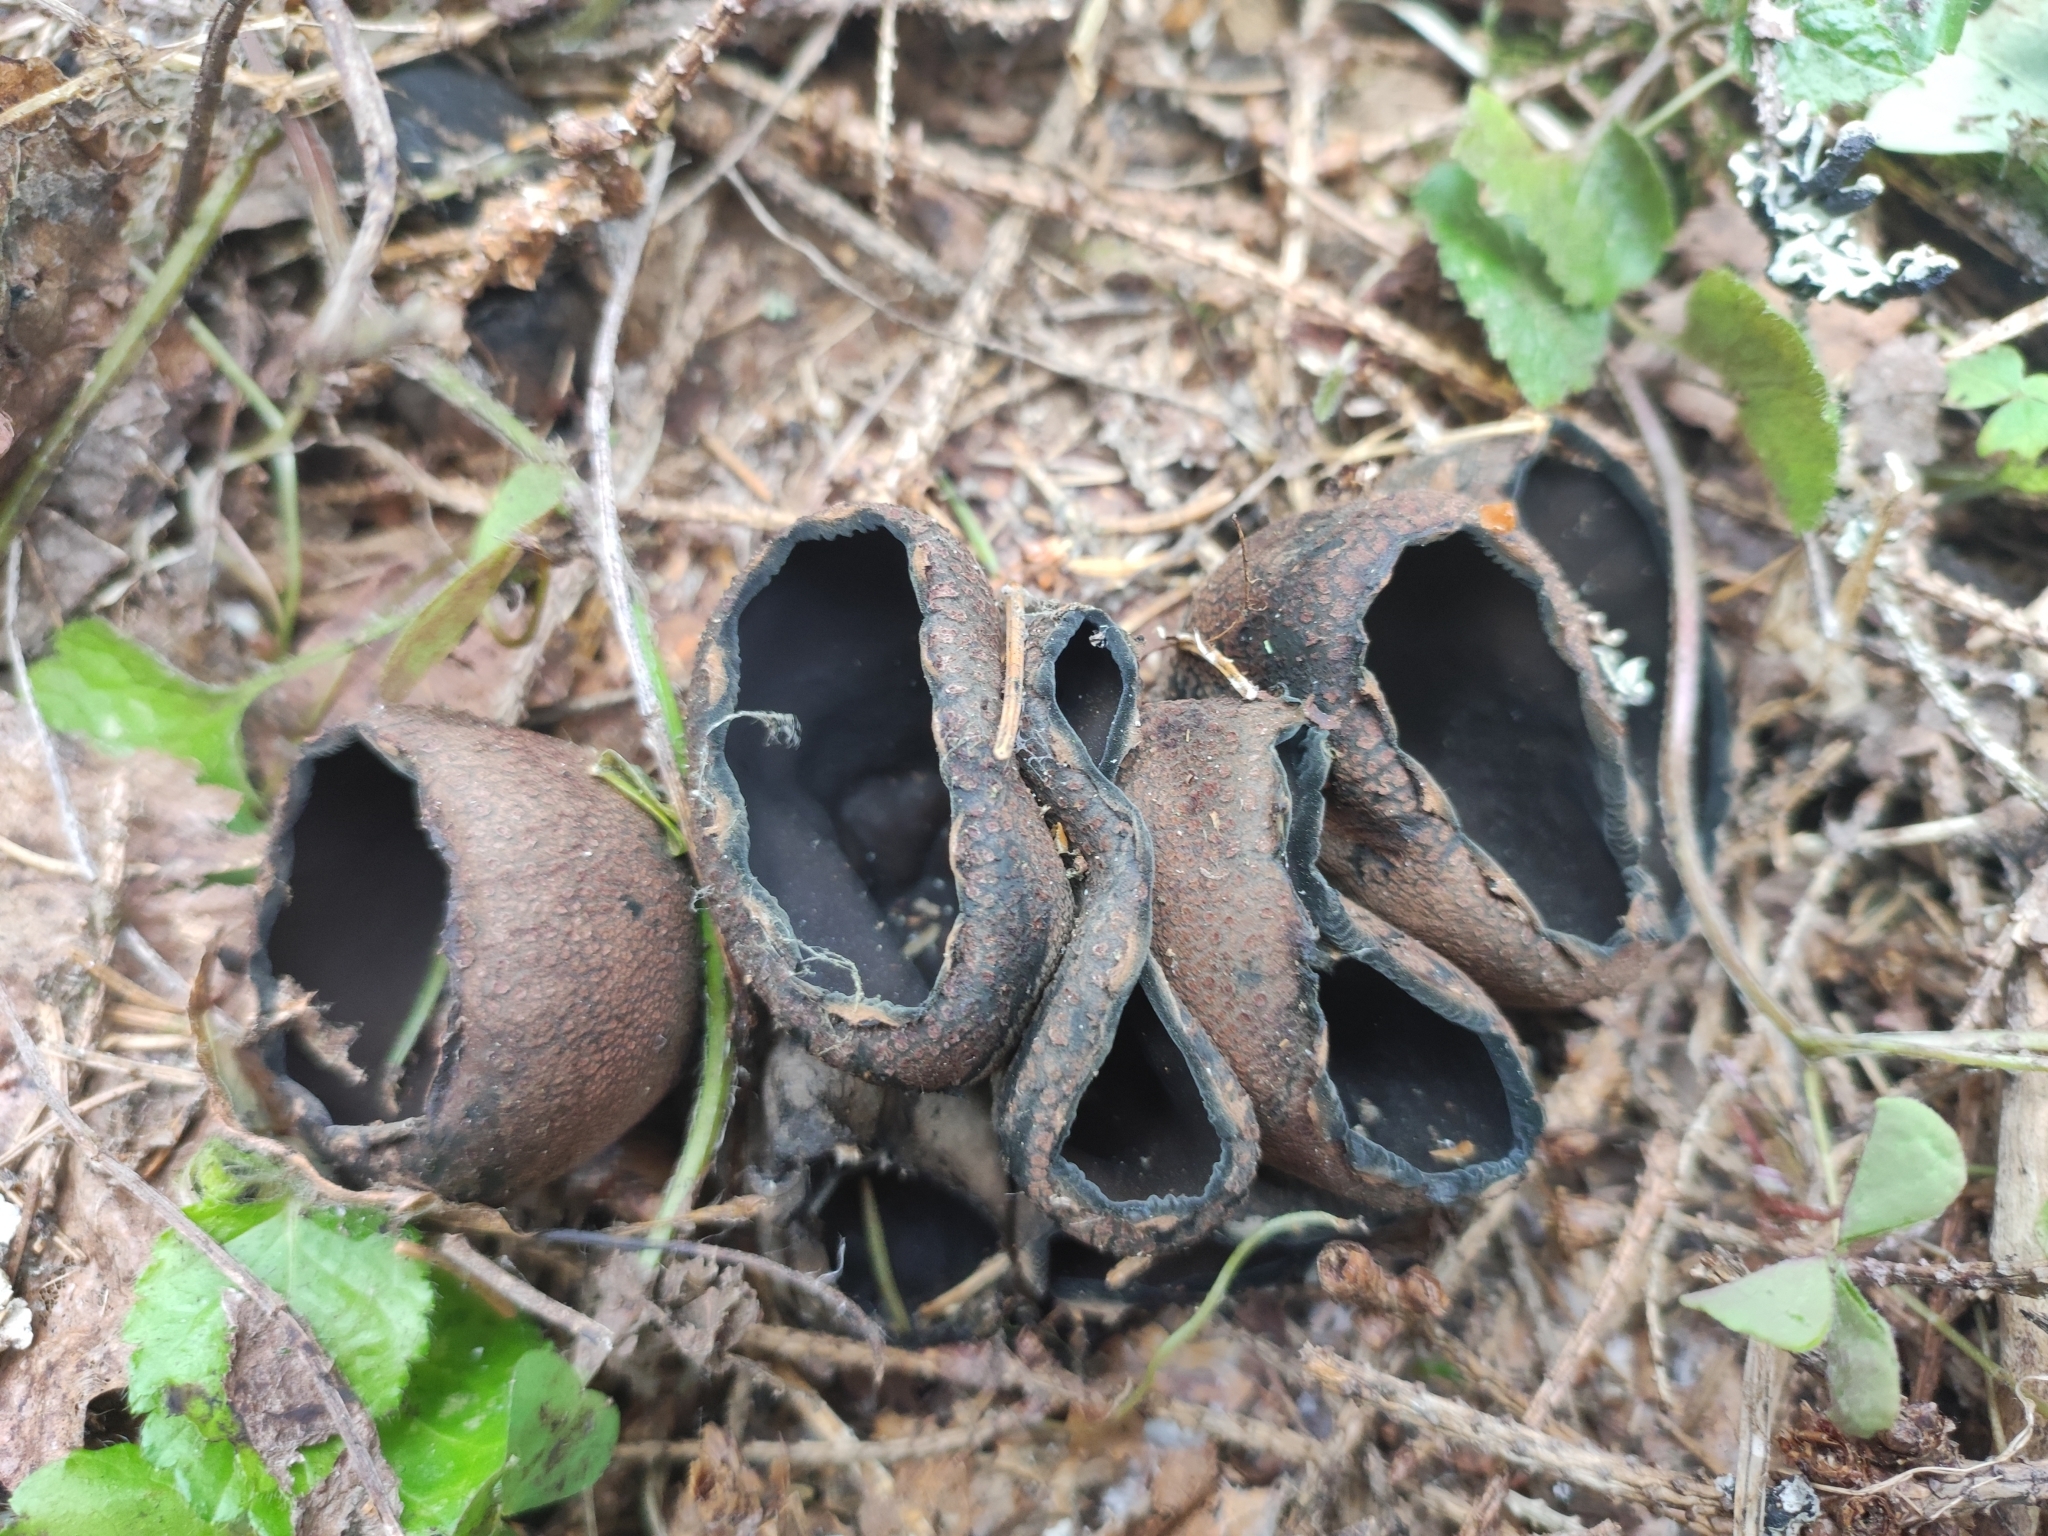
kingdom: Fungi
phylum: Ascomycota
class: Pezizomycetes
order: Pezizales
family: Sarcosomataceae
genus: Urnula
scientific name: Urnula craterium
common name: Devil's urn
